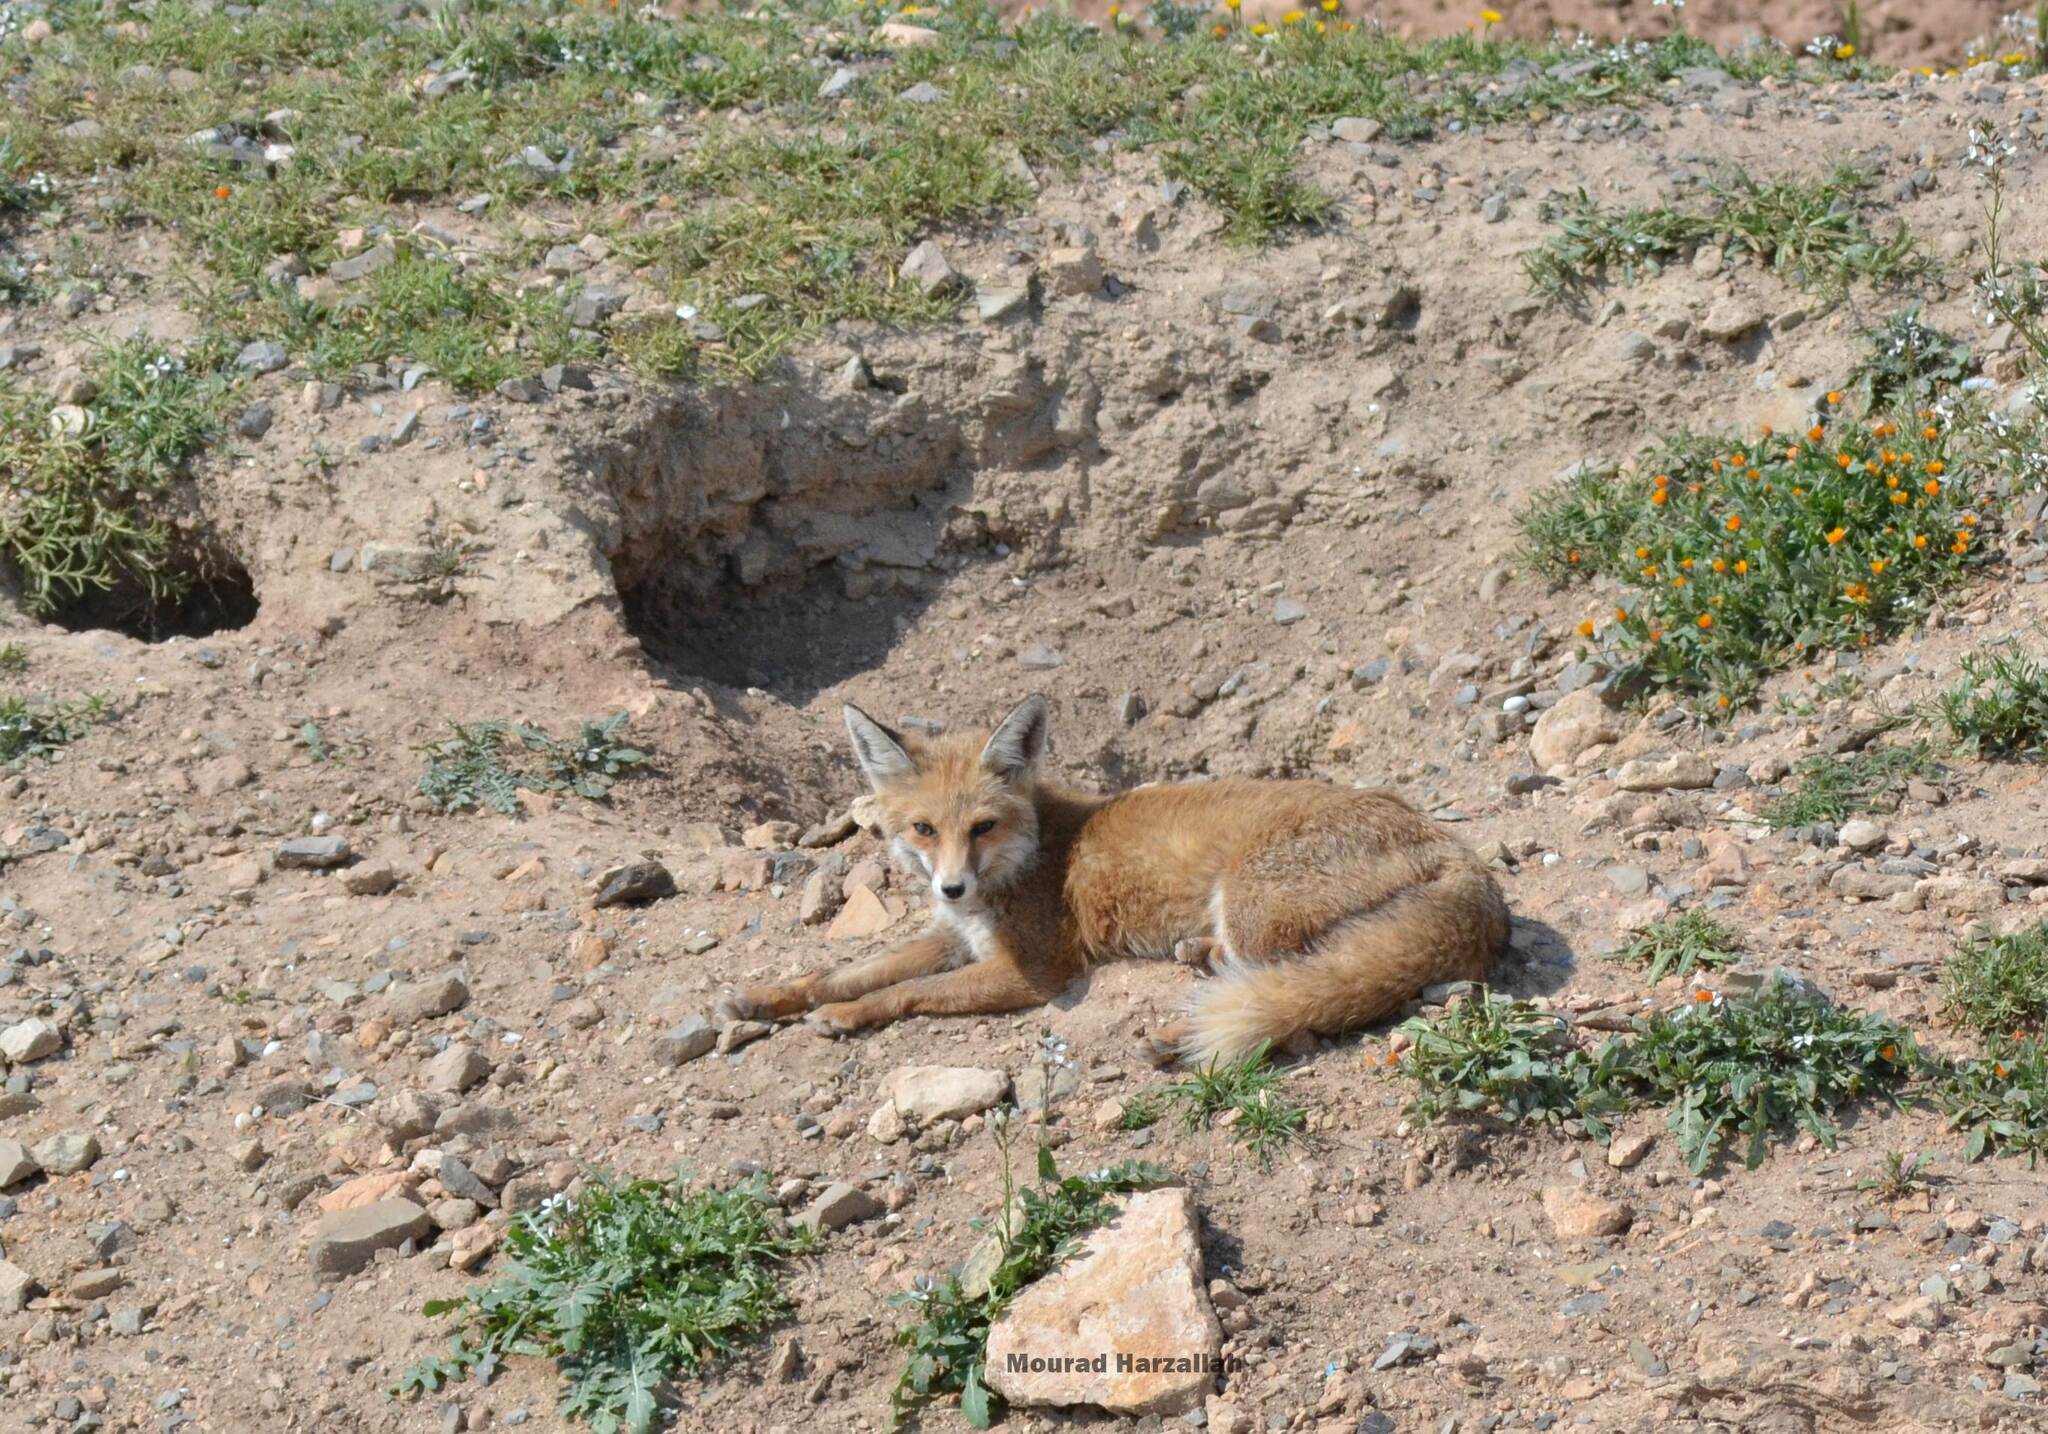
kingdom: Animalia
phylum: Chordata
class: Mammalia
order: Carnivora
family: Canidae
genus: Vulpes
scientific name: Vulpes vulpes
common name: Red fox
